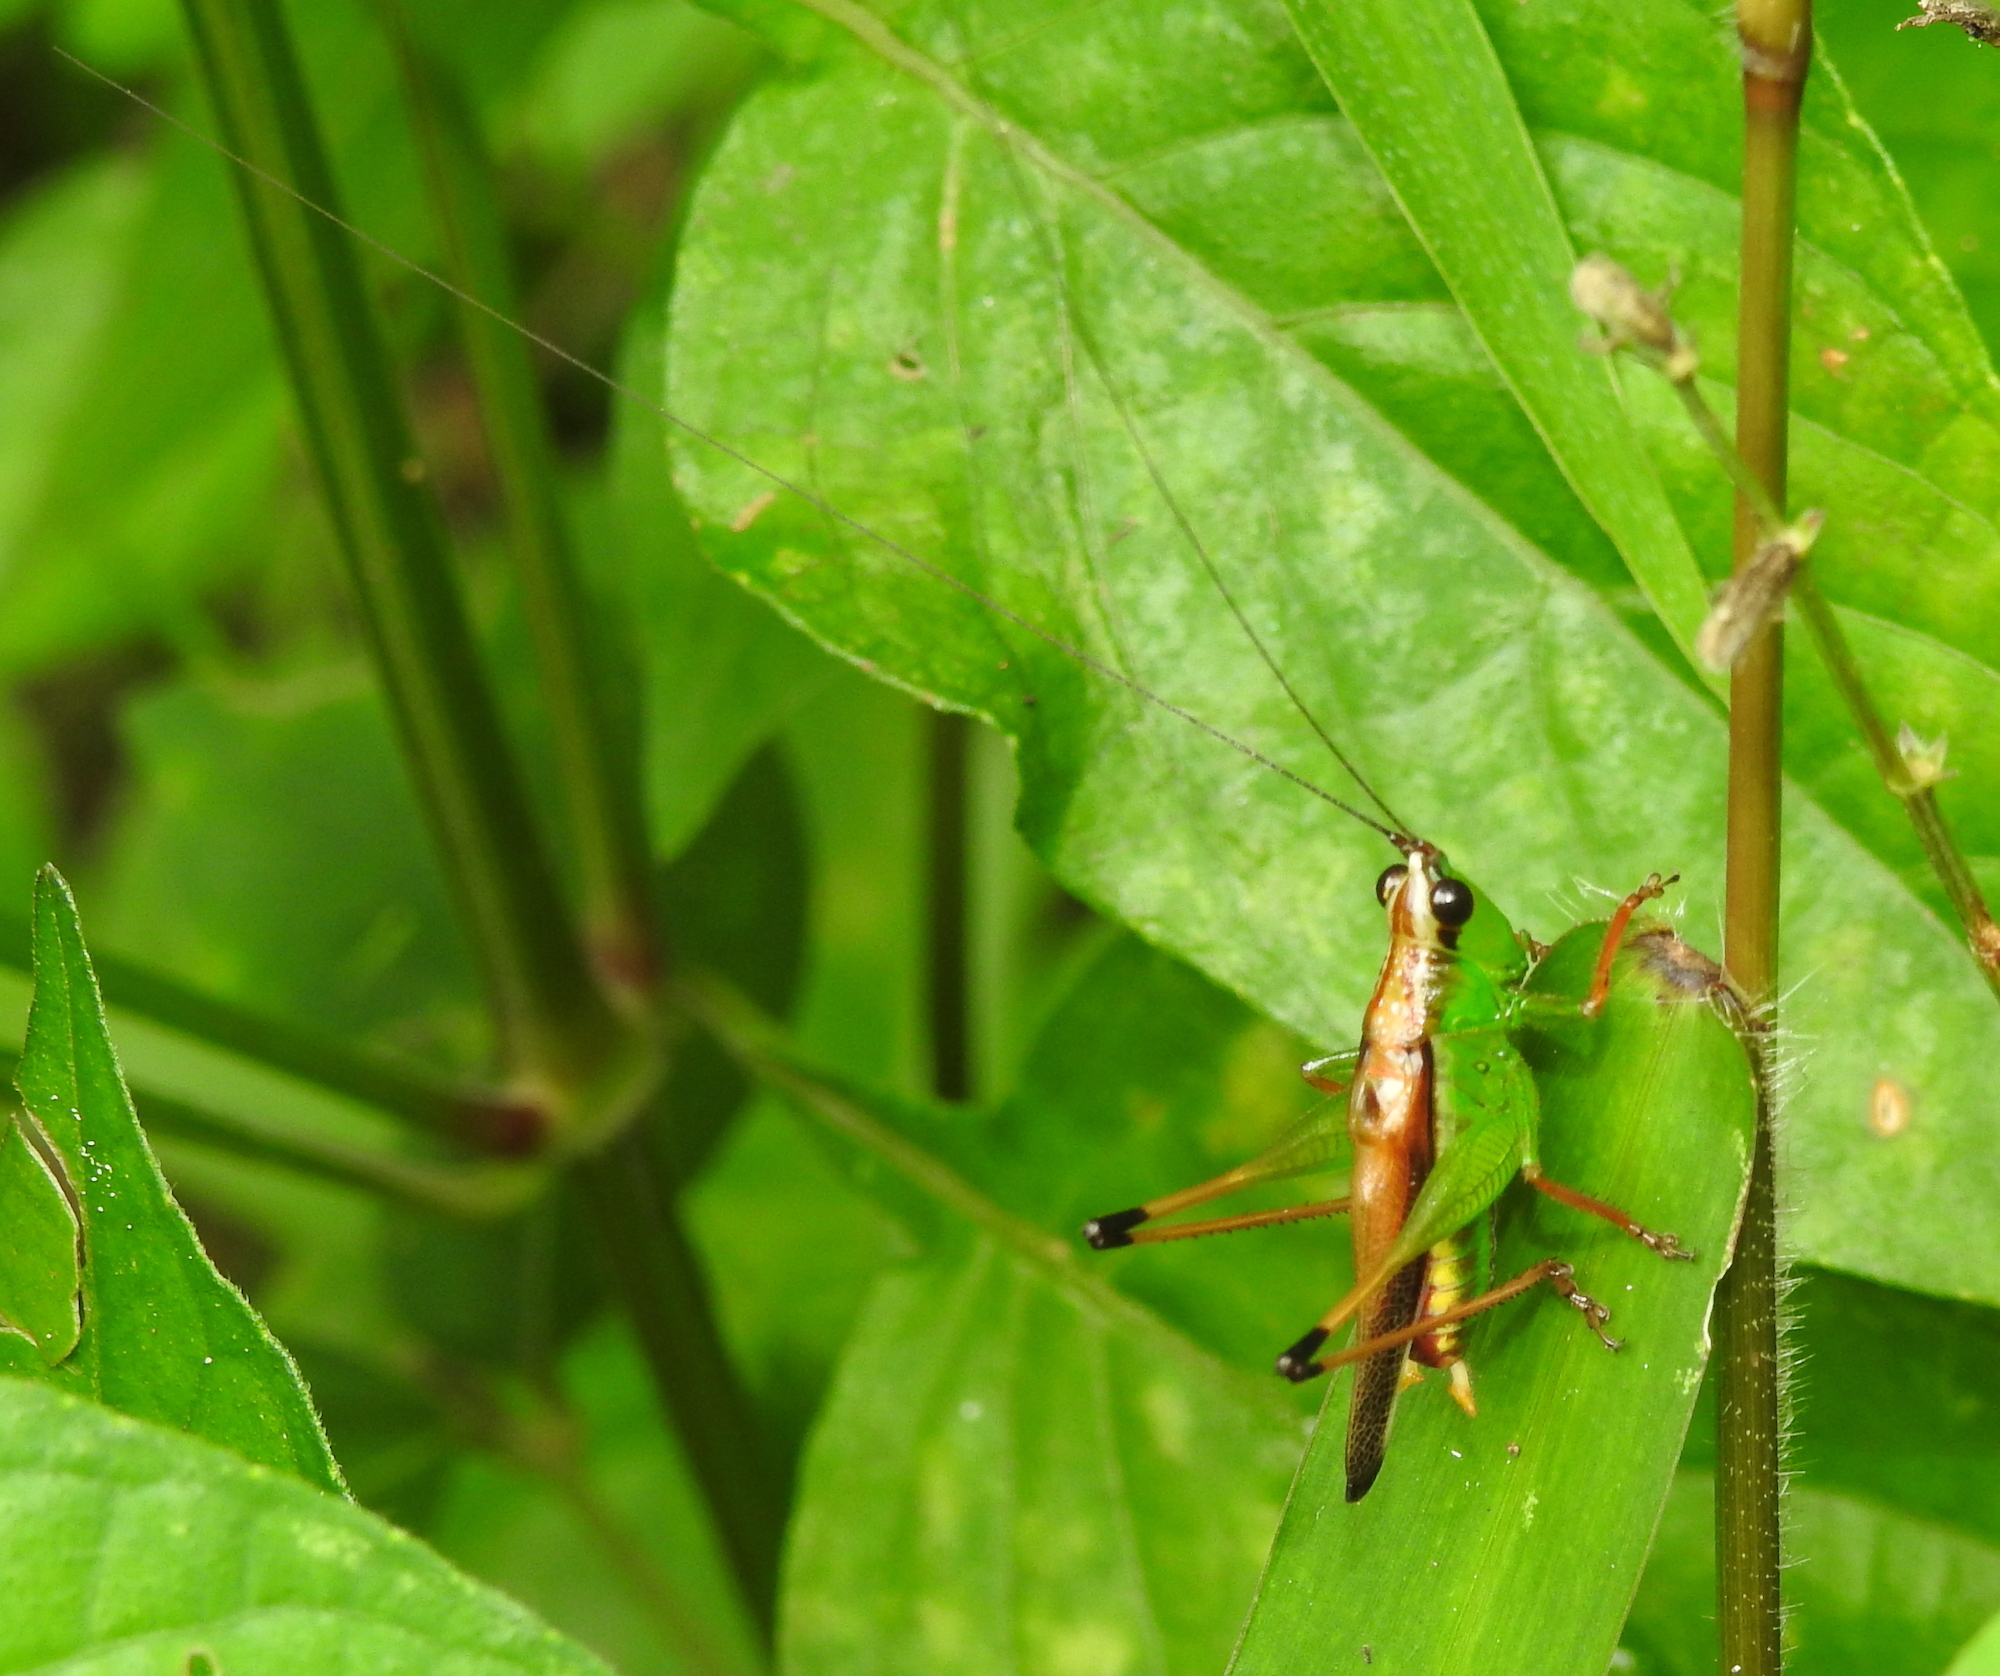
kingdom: Animalia
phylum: Arthropoda
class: Insecta
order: Orthoptera
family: Tettigoniidae
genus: Conocephalus
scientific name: Conocephalus melaenus
